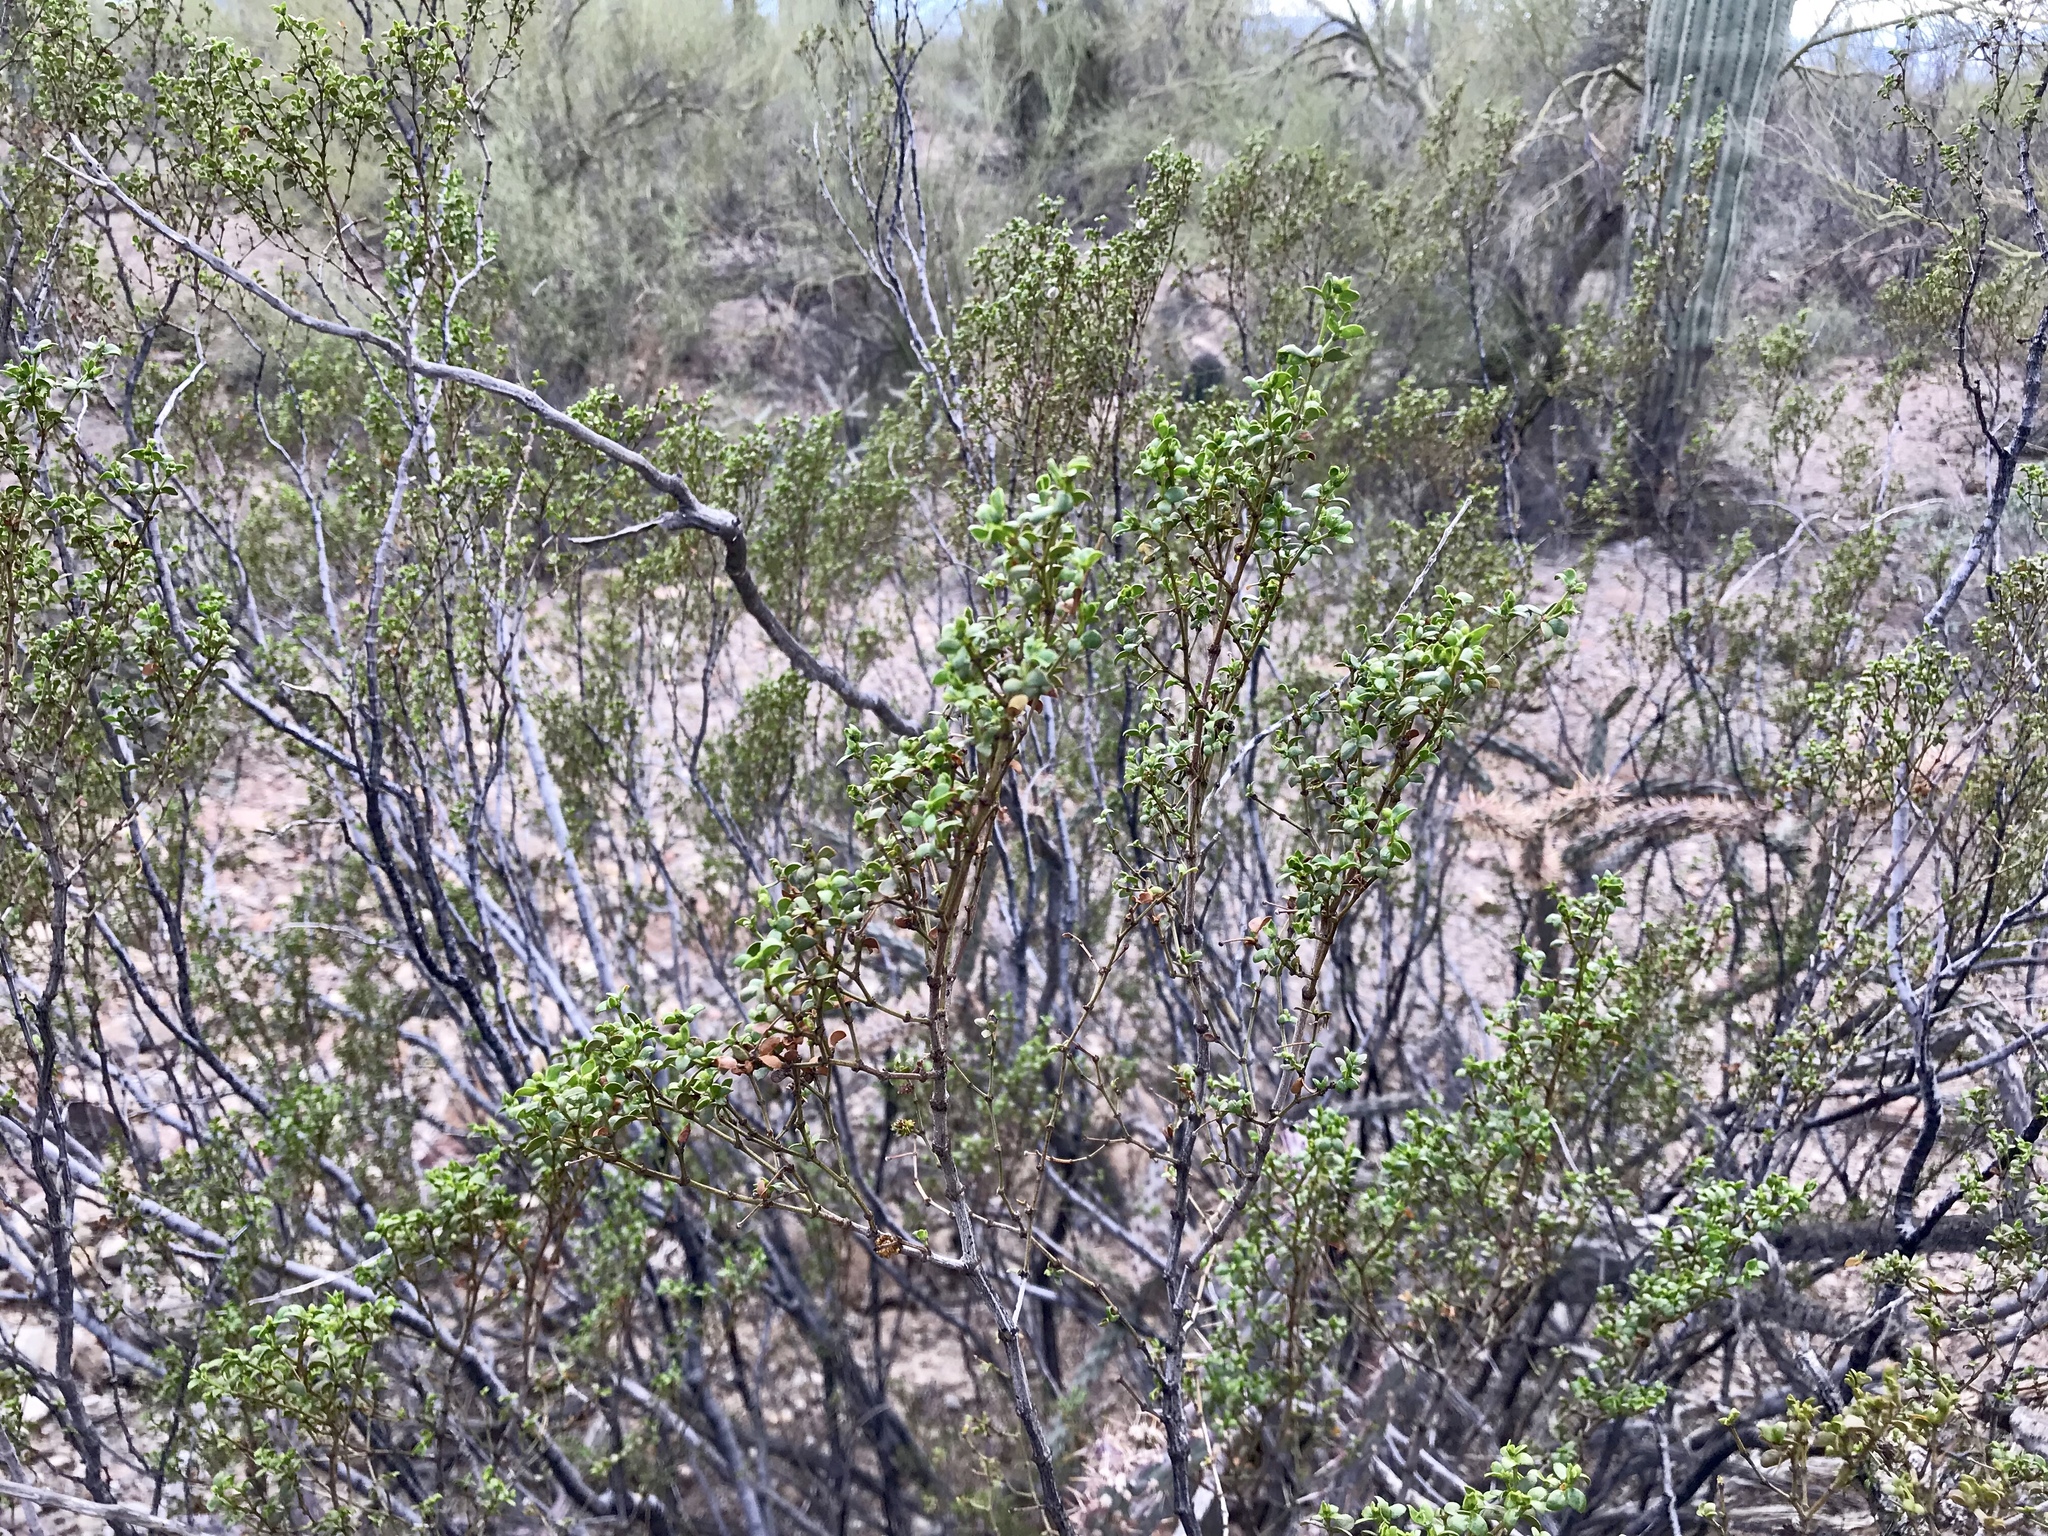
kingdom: Plantae
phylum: Tracheophyta
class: Magnoliopsida
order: Zygophyllales
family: Zygophyllaceae
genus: Larrea
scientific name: Larrea tridentata
